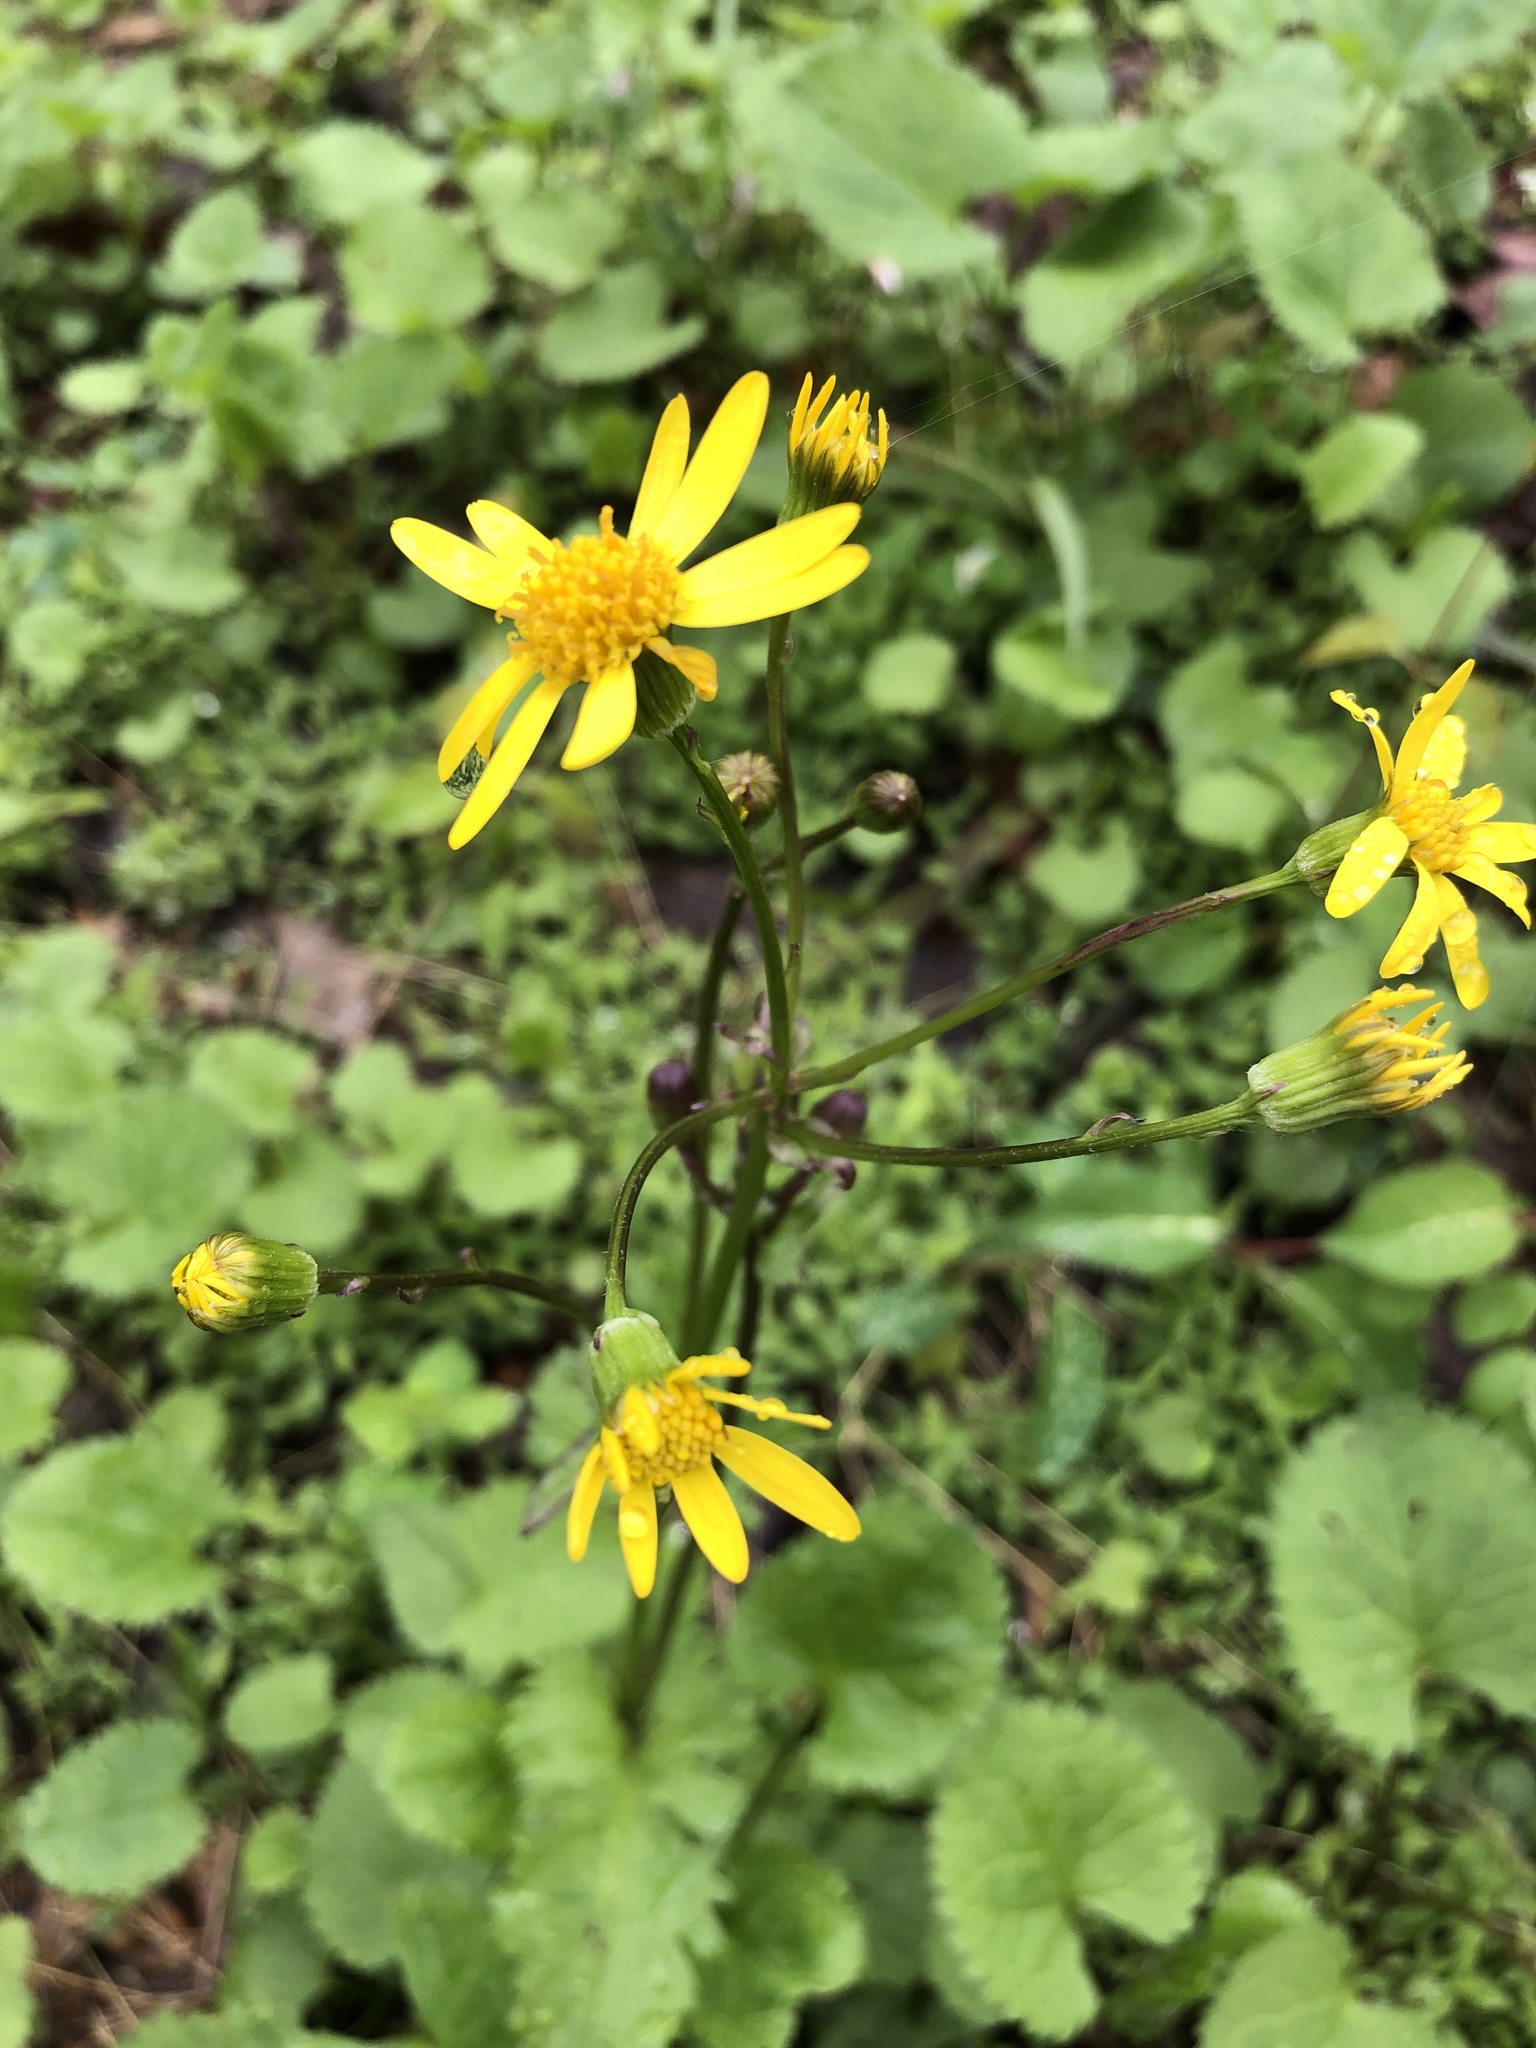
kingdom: Plantae
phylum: Tracheophyta
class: Magnoliopsida
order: Asterales
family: Asteraceae
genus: Packera
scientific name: Packera aurea
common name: Golden groundsel
